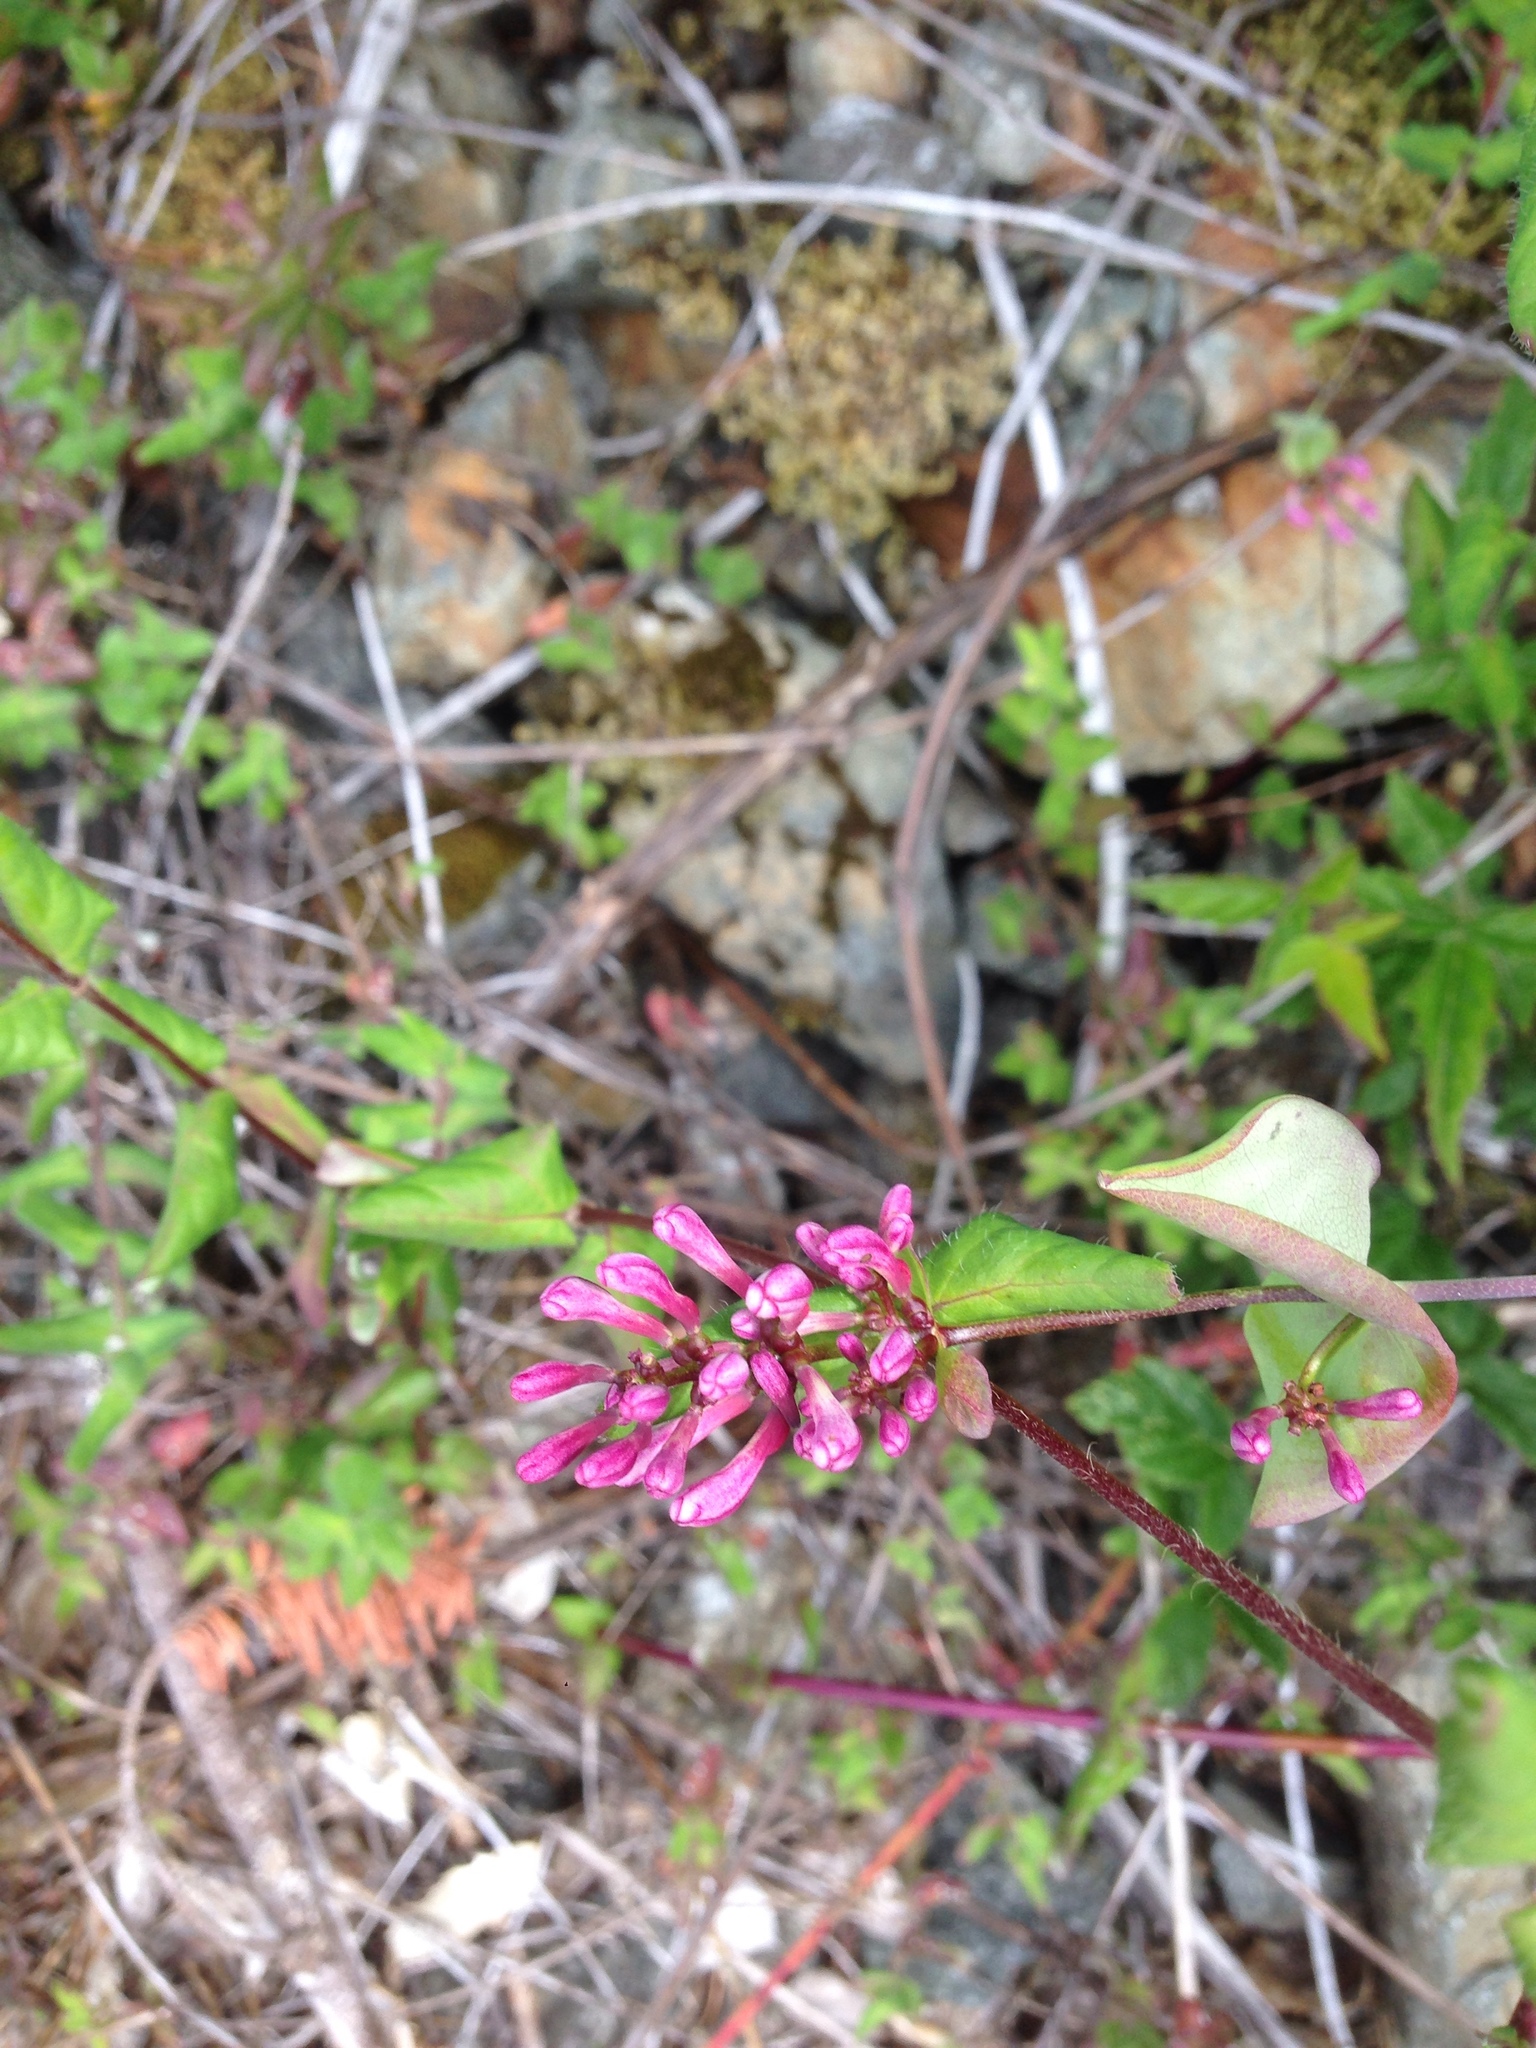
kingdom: Plantae
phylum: Tracheophyta
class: Magnoliopsida
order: Dipsacales
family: Caprifoliaceae
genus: Lonicera
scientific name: Lonicera hispidula
